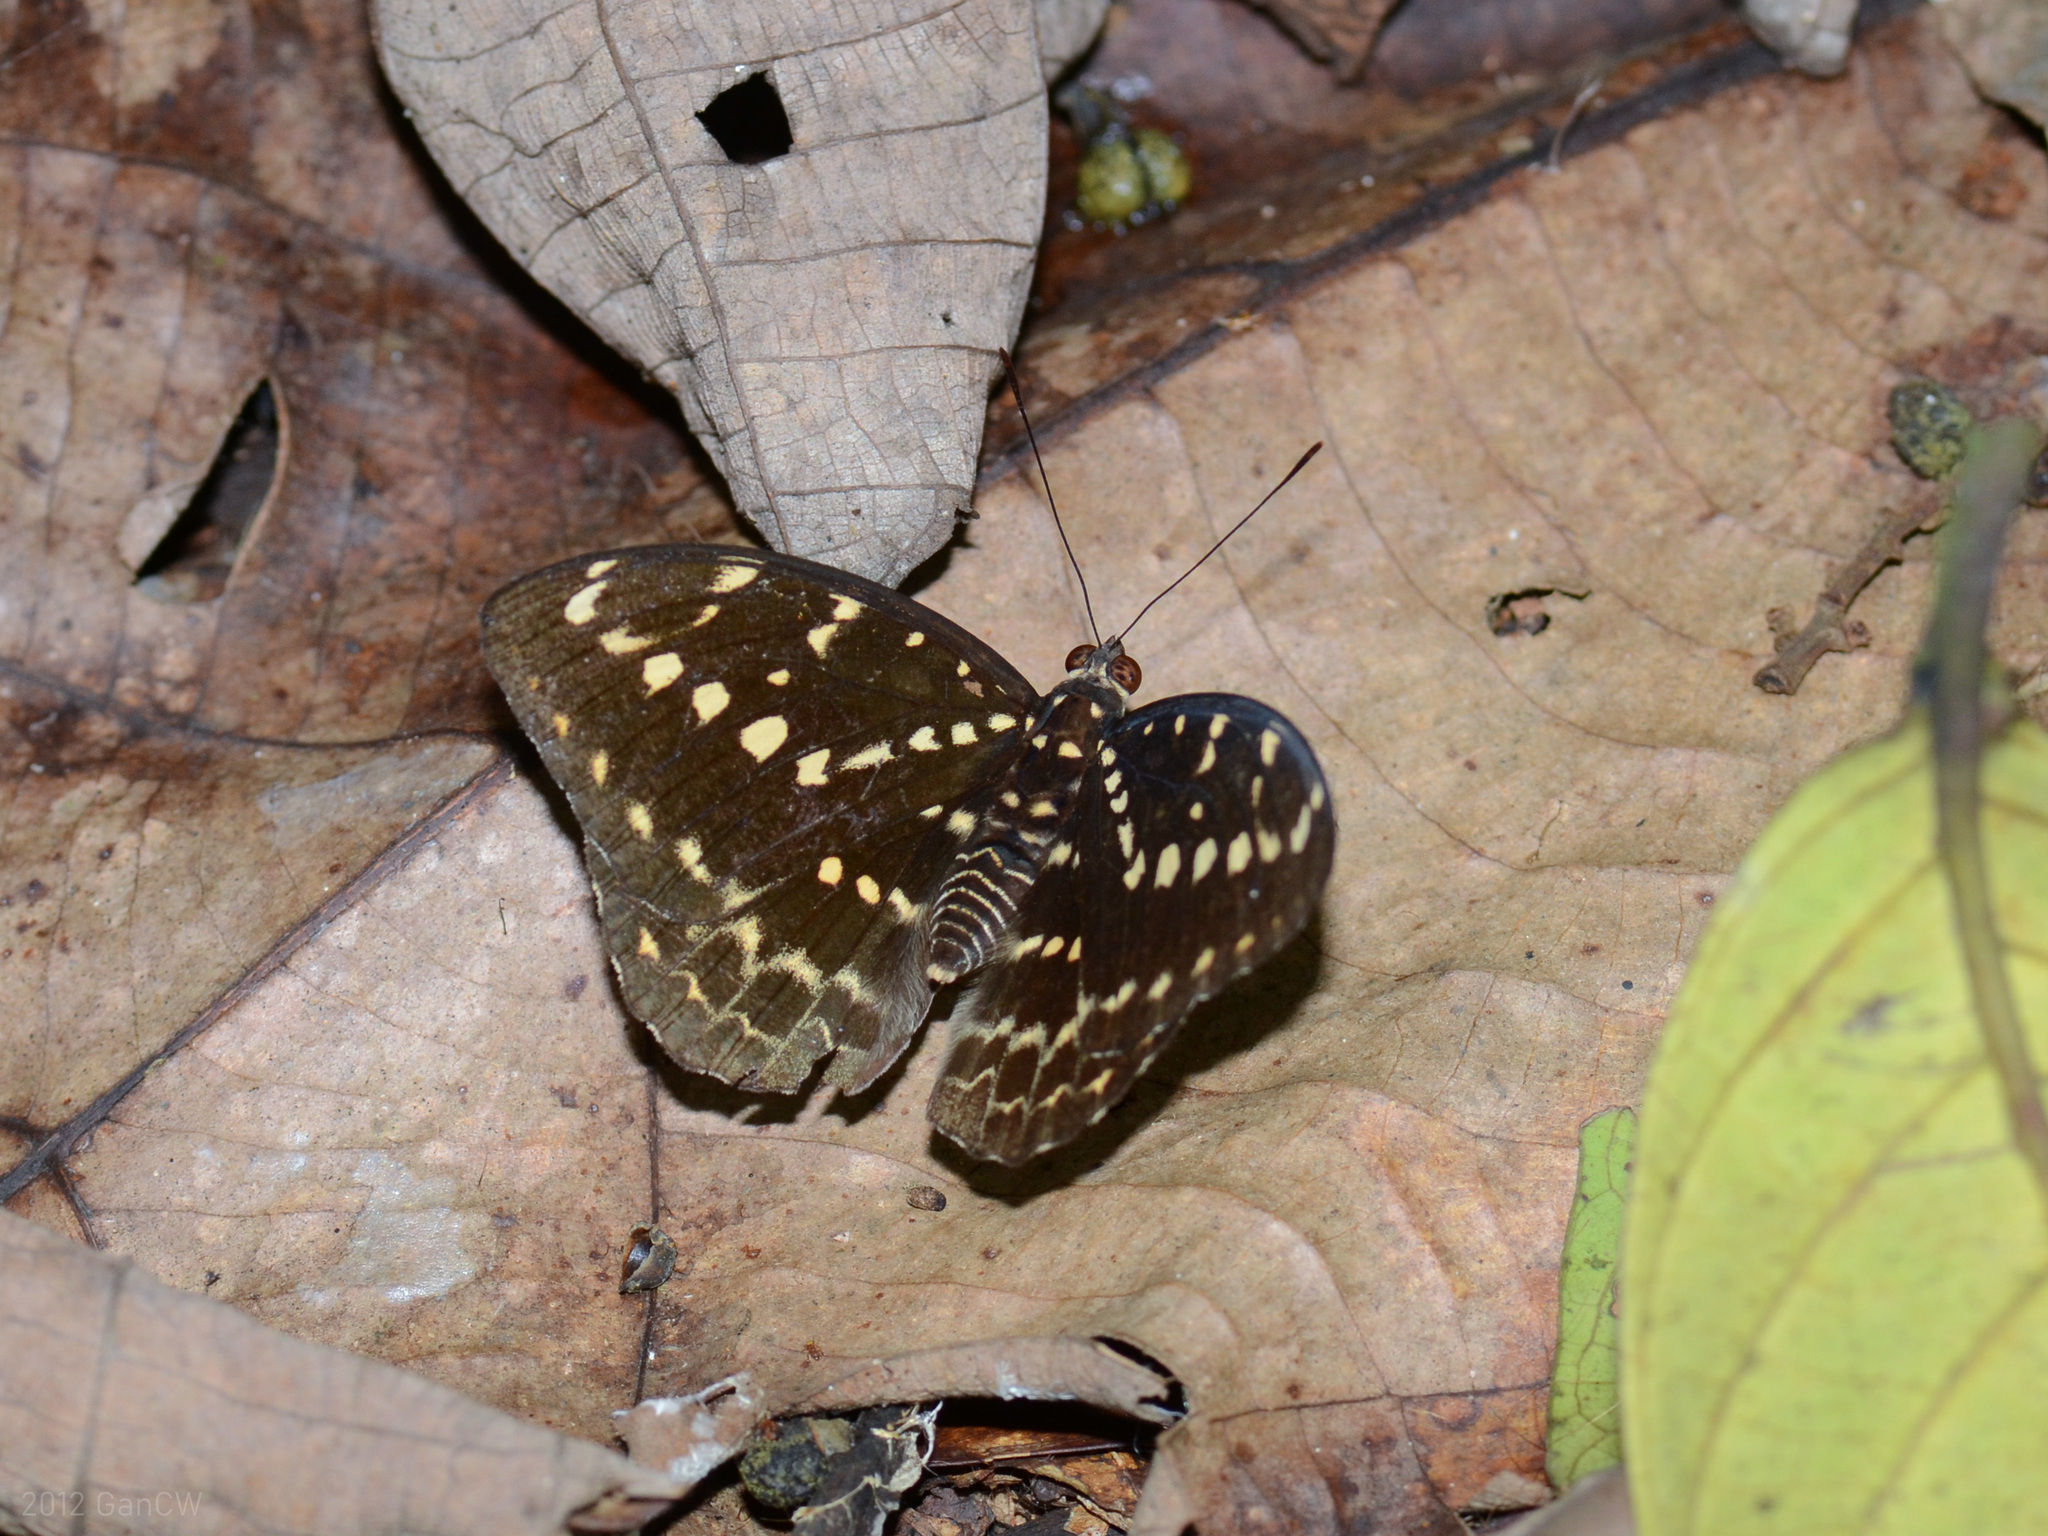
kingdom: Animalia
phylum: Arthropoda
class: Insecta
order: Lepidoptera
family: Nymphalidae
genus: Lexias
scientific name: Lexias canescens
